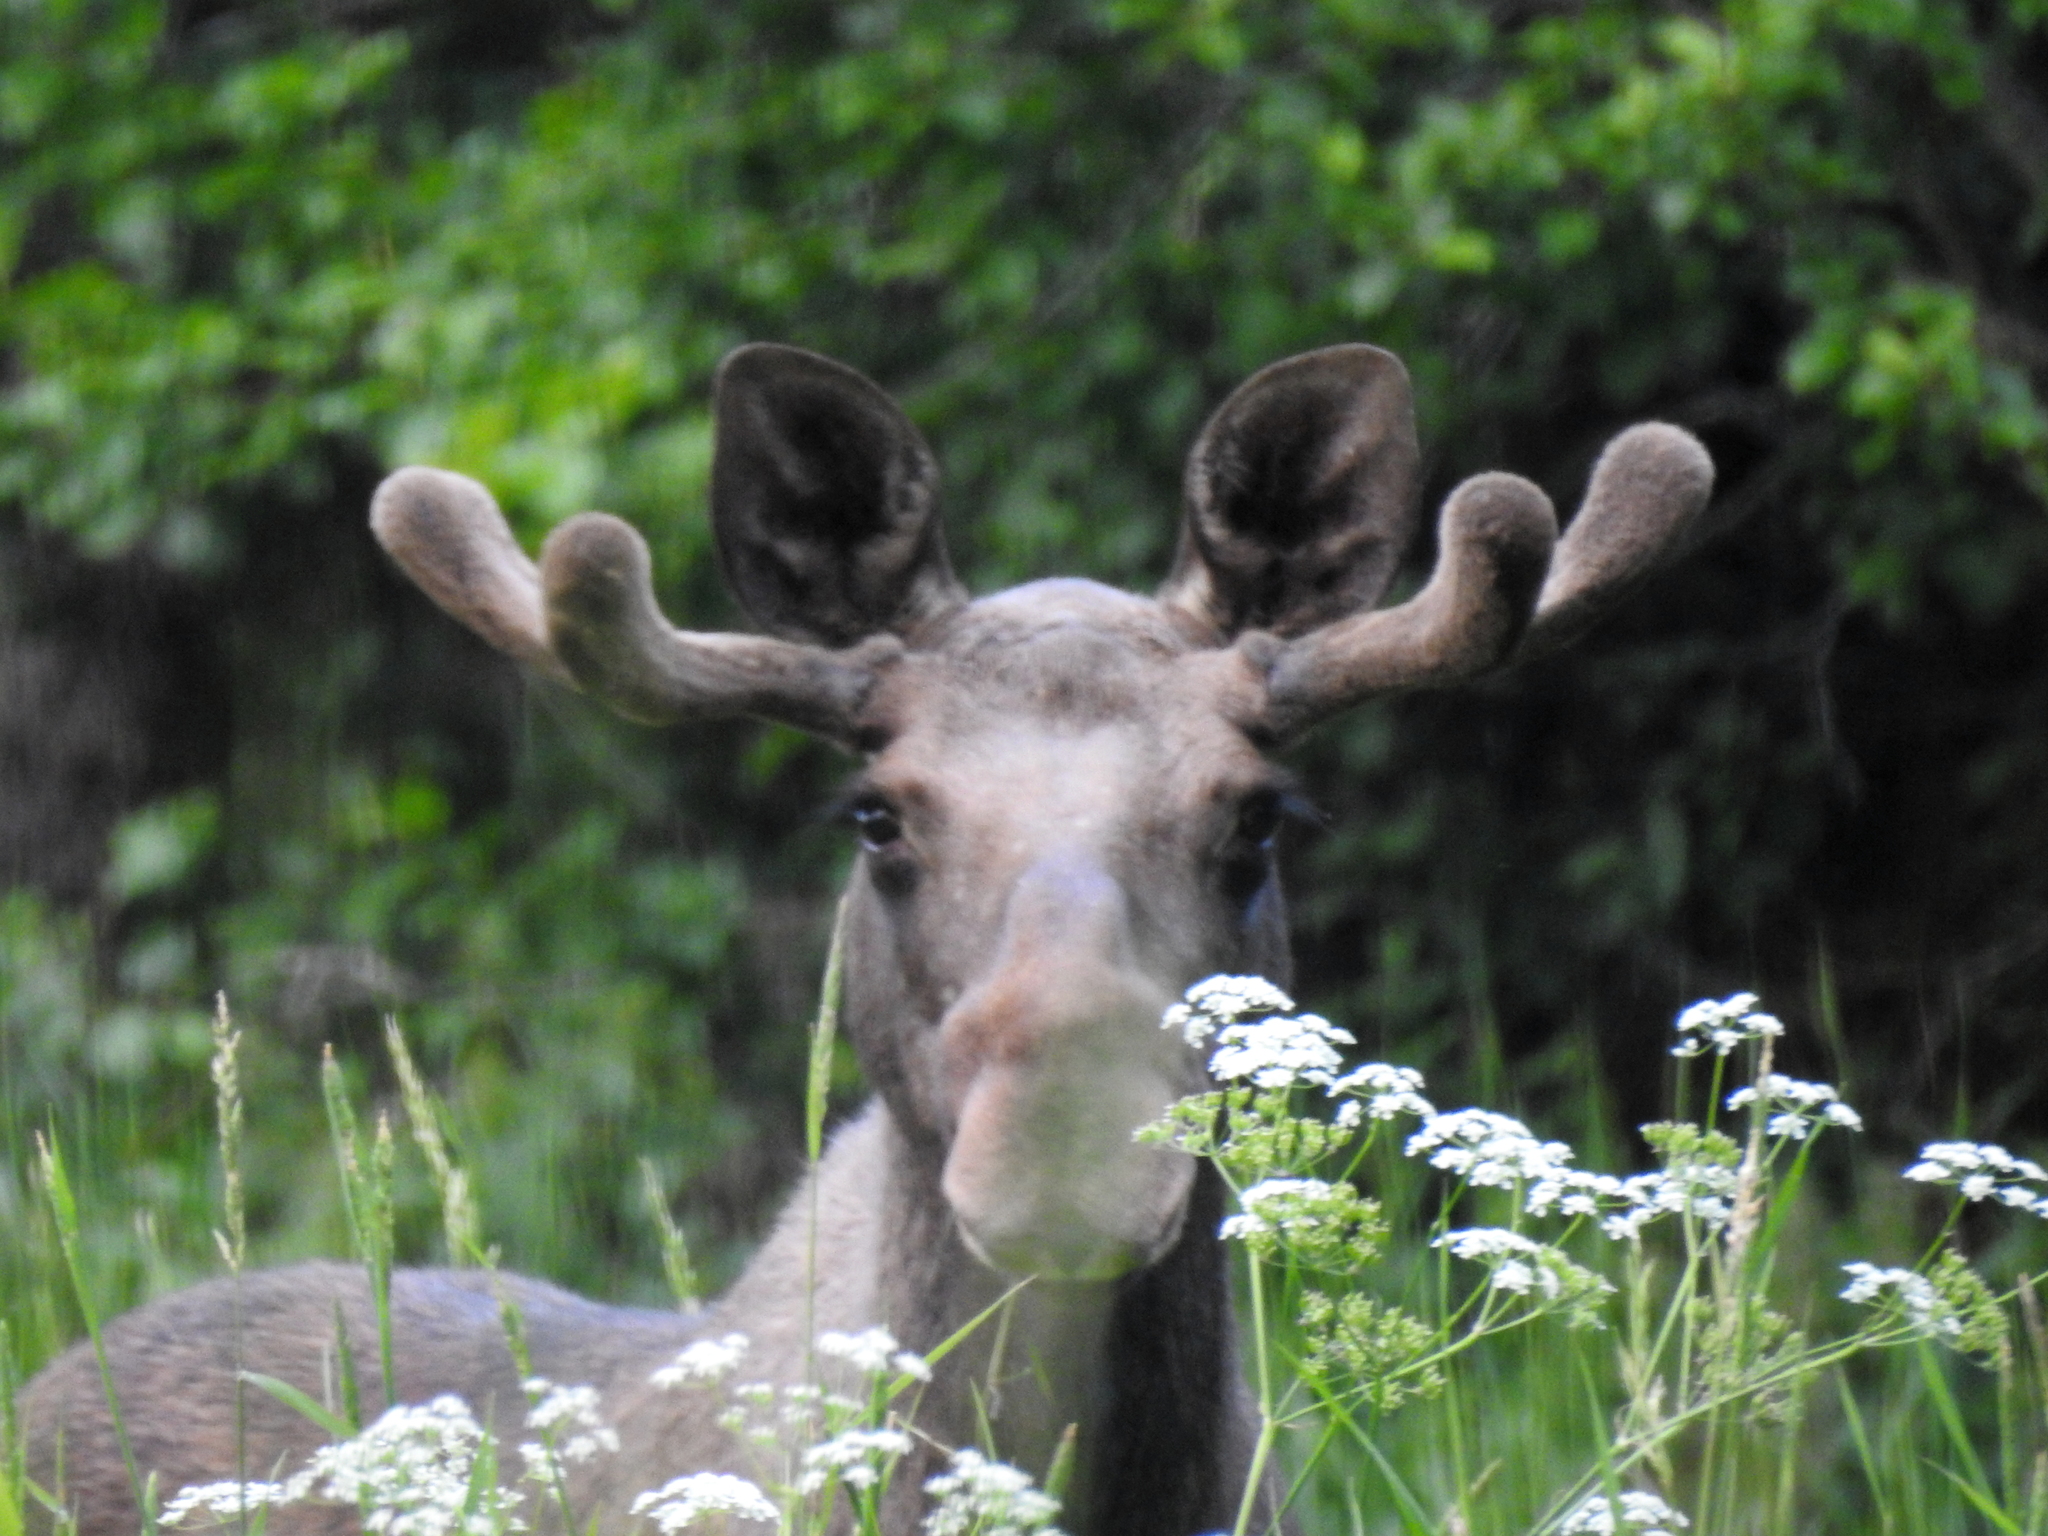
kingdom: Animalia
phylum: Chordata
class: Mammalia
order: Artiodactyla
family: Cervidae
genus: Alces
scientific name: Alces alces
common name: Moose
